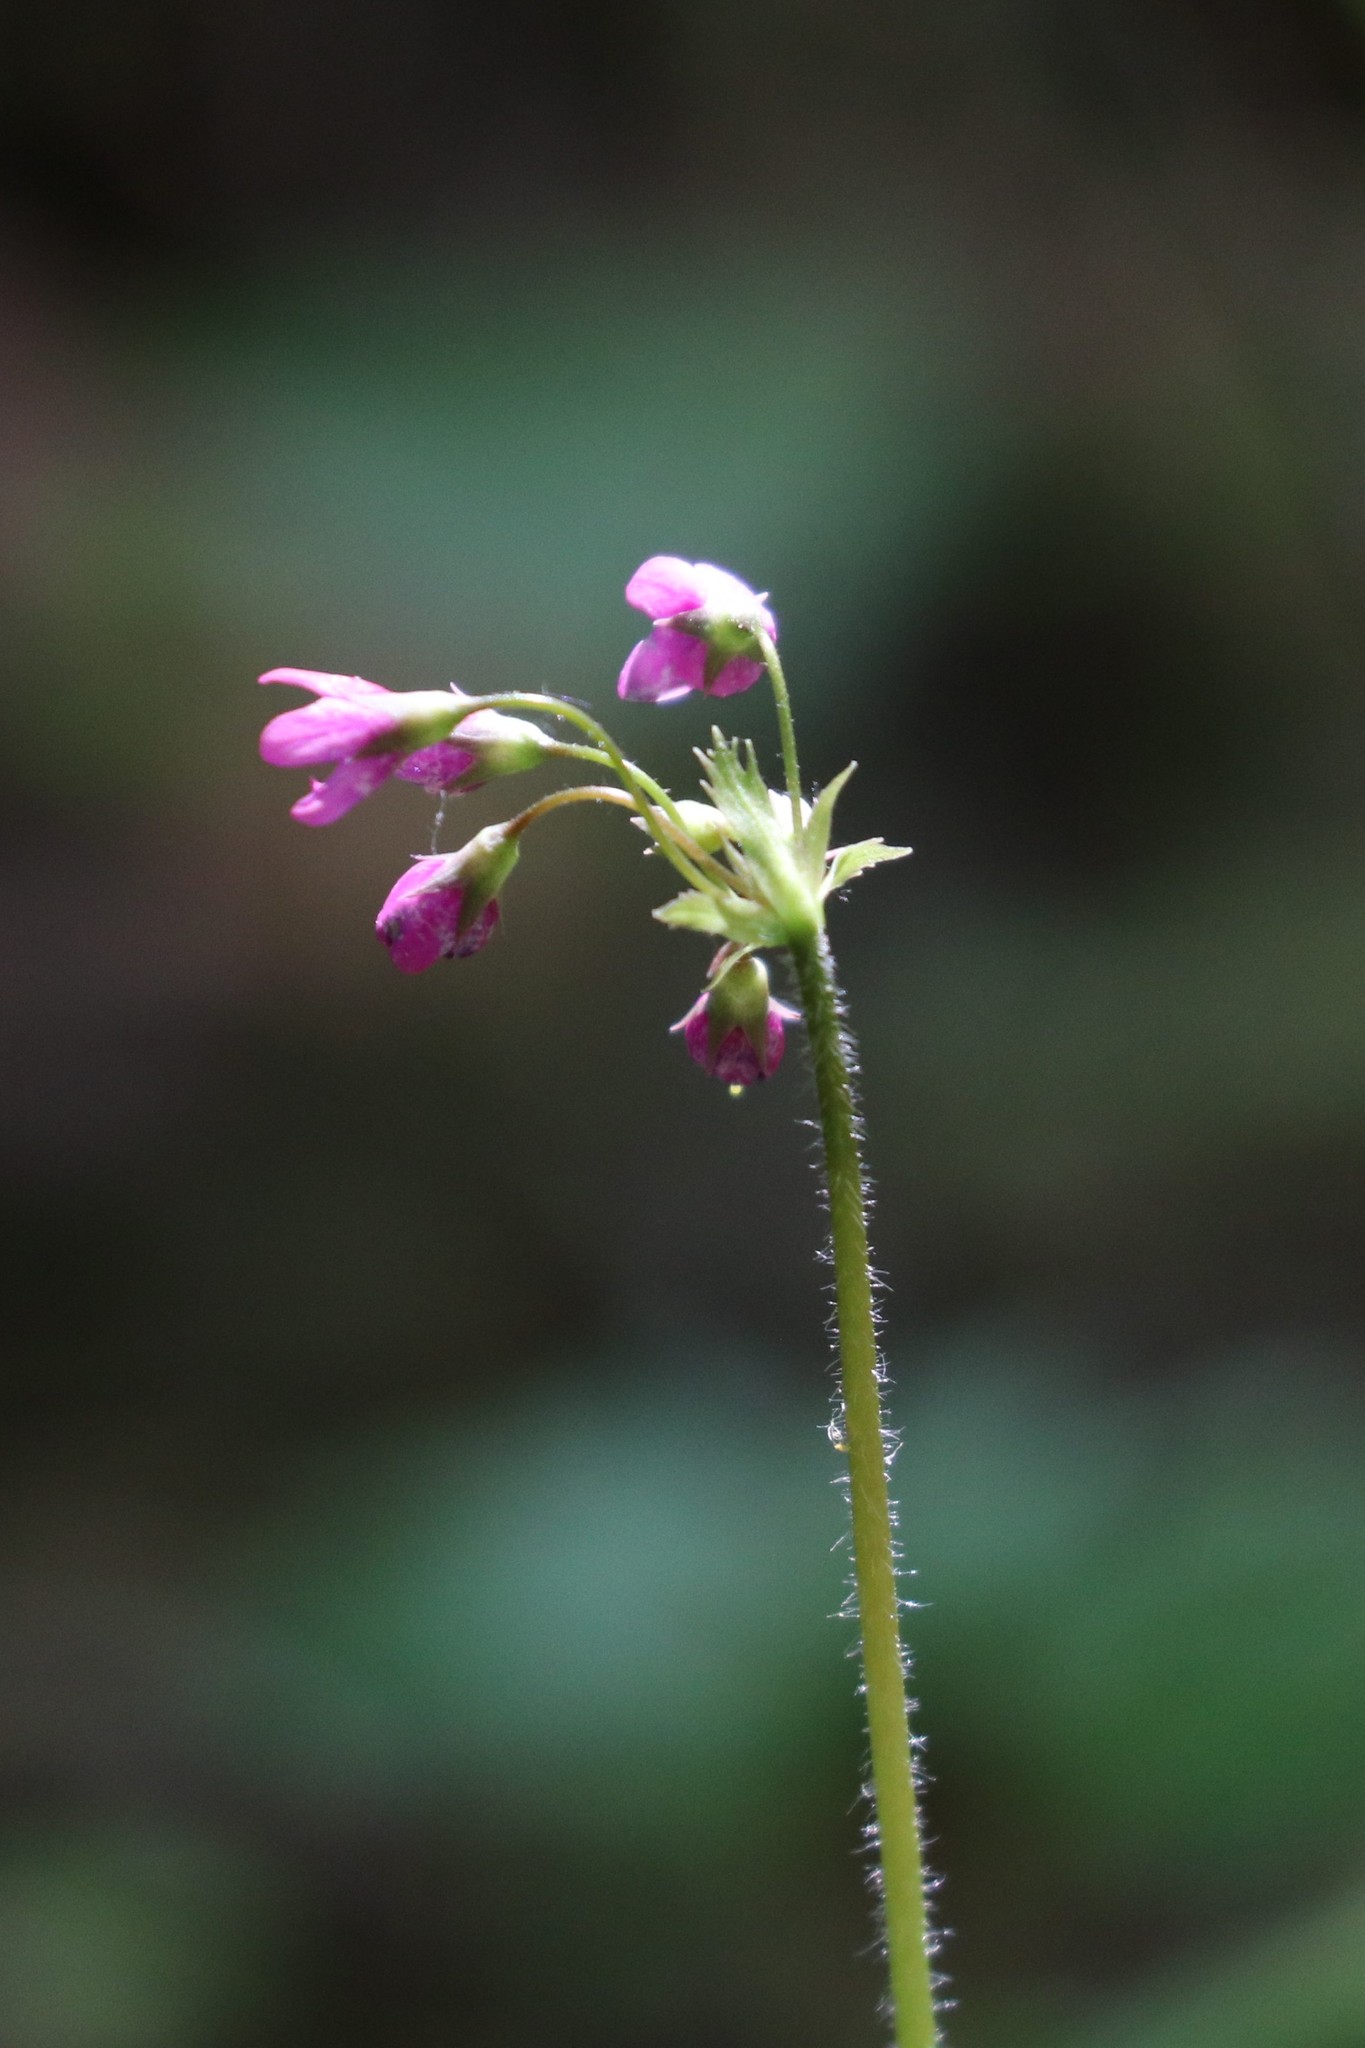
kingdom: Plantae
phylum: Tracheophyta
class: Magnoliopsida
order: Ericales
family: Primulaceae
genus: Primula
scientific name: Primula matthioli
